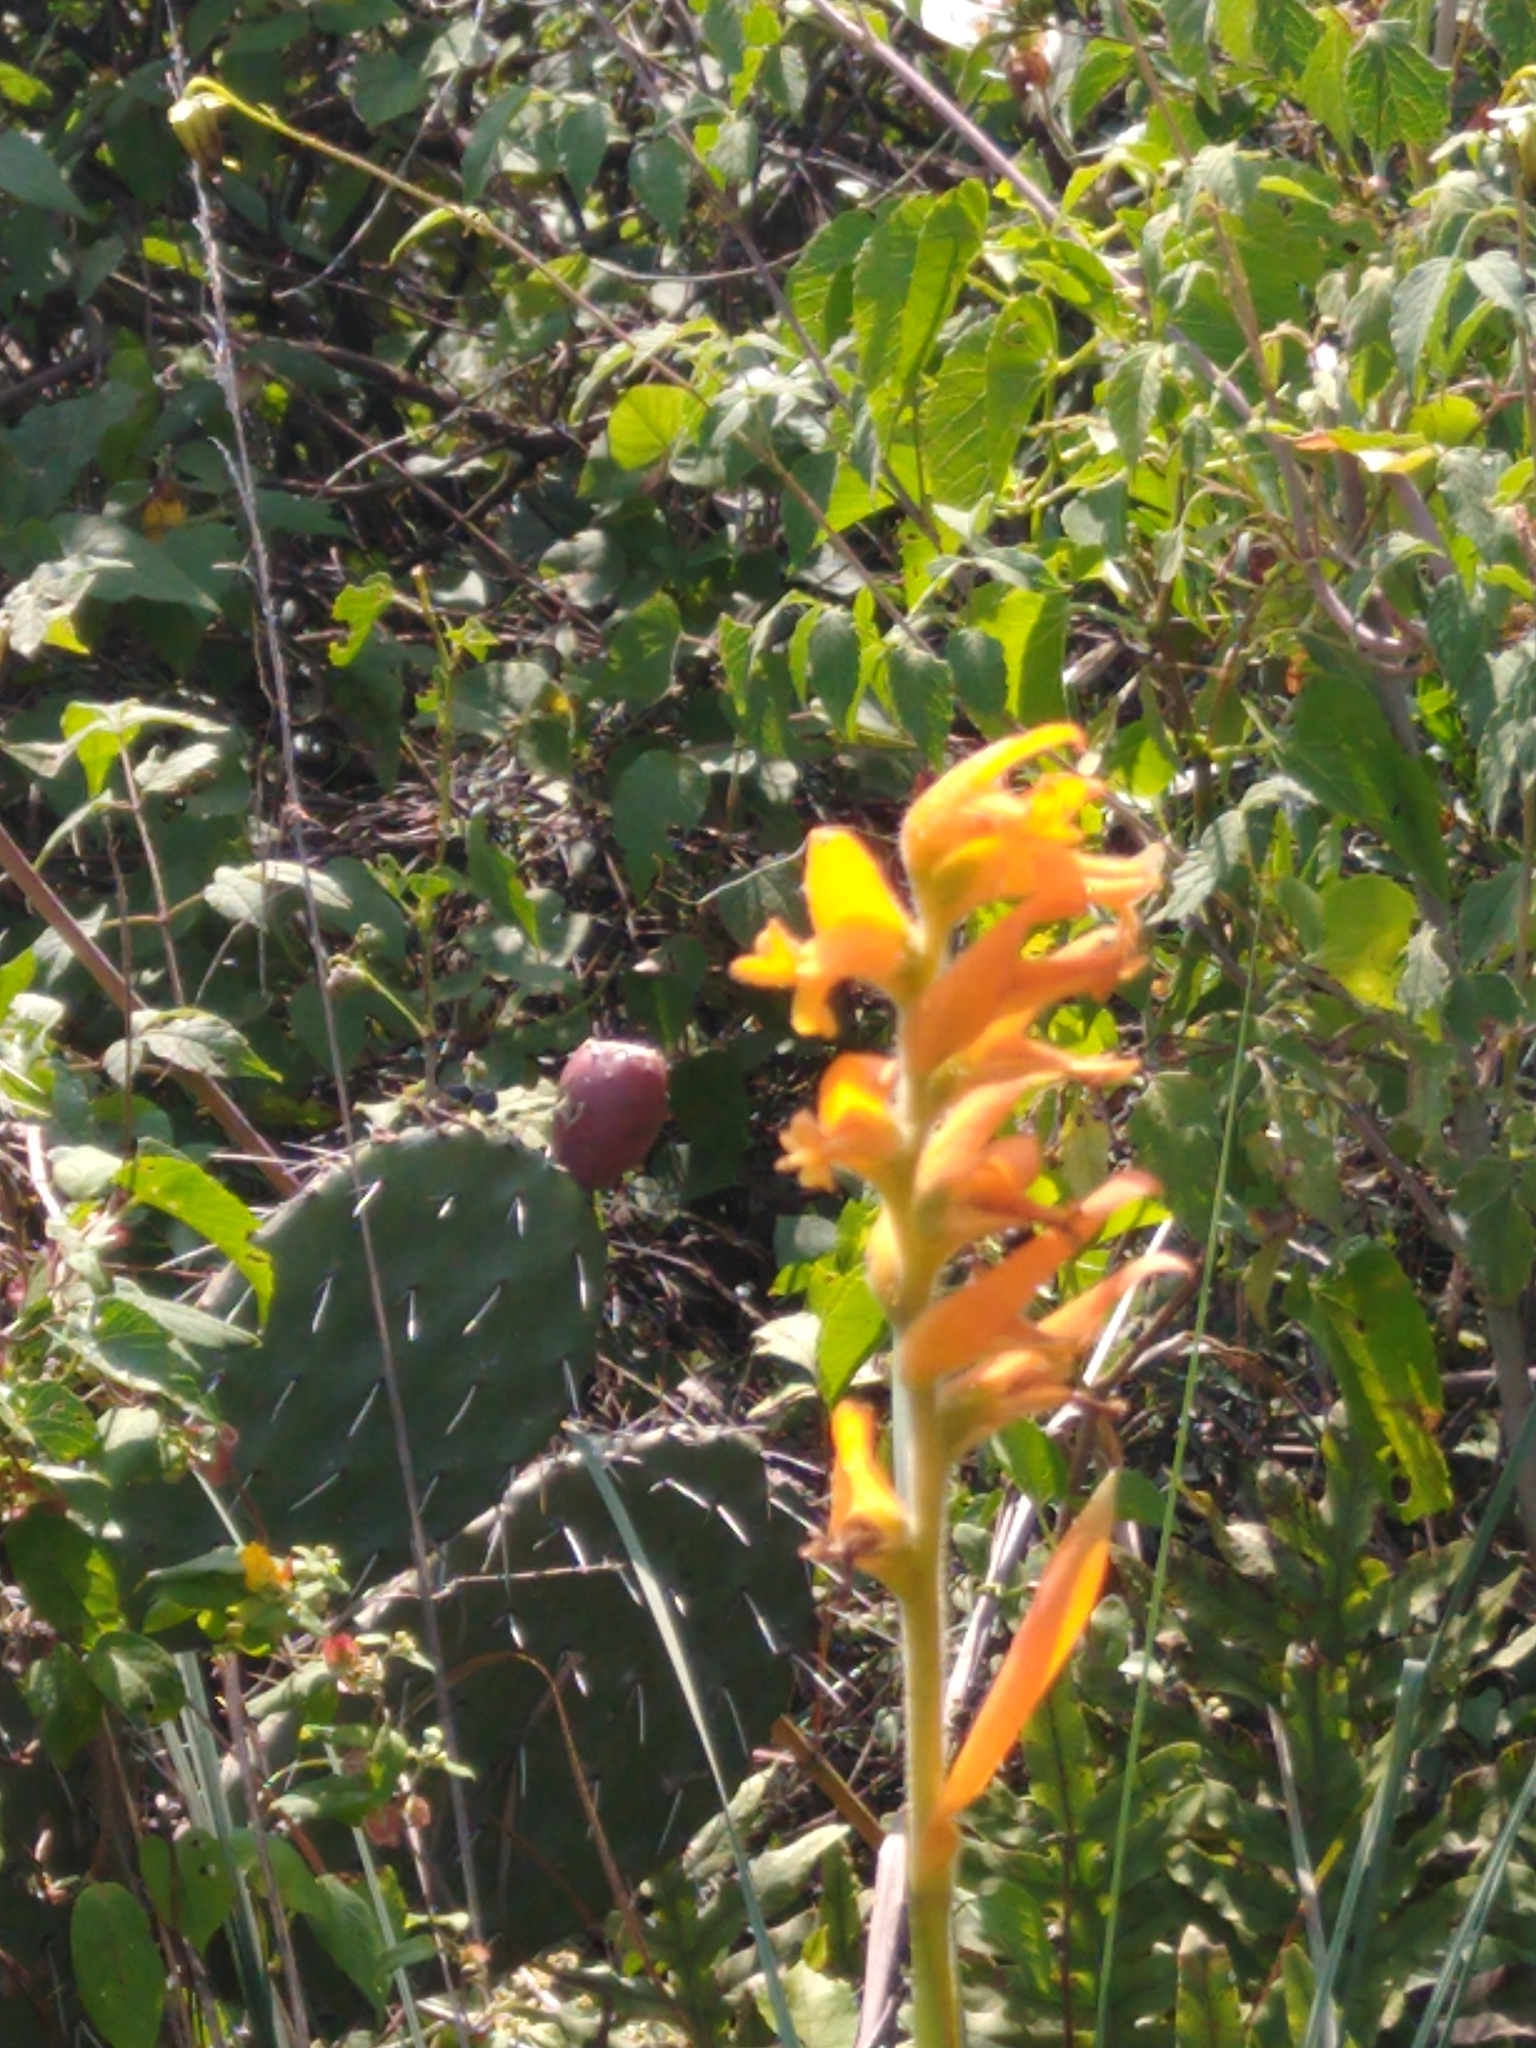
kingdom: Plantae
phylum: Tracheophyta
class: Liliopsida
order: Asparagales
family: Orchidaceae
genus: Dichromanthus
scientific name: Dichromanthus aurantiacus
